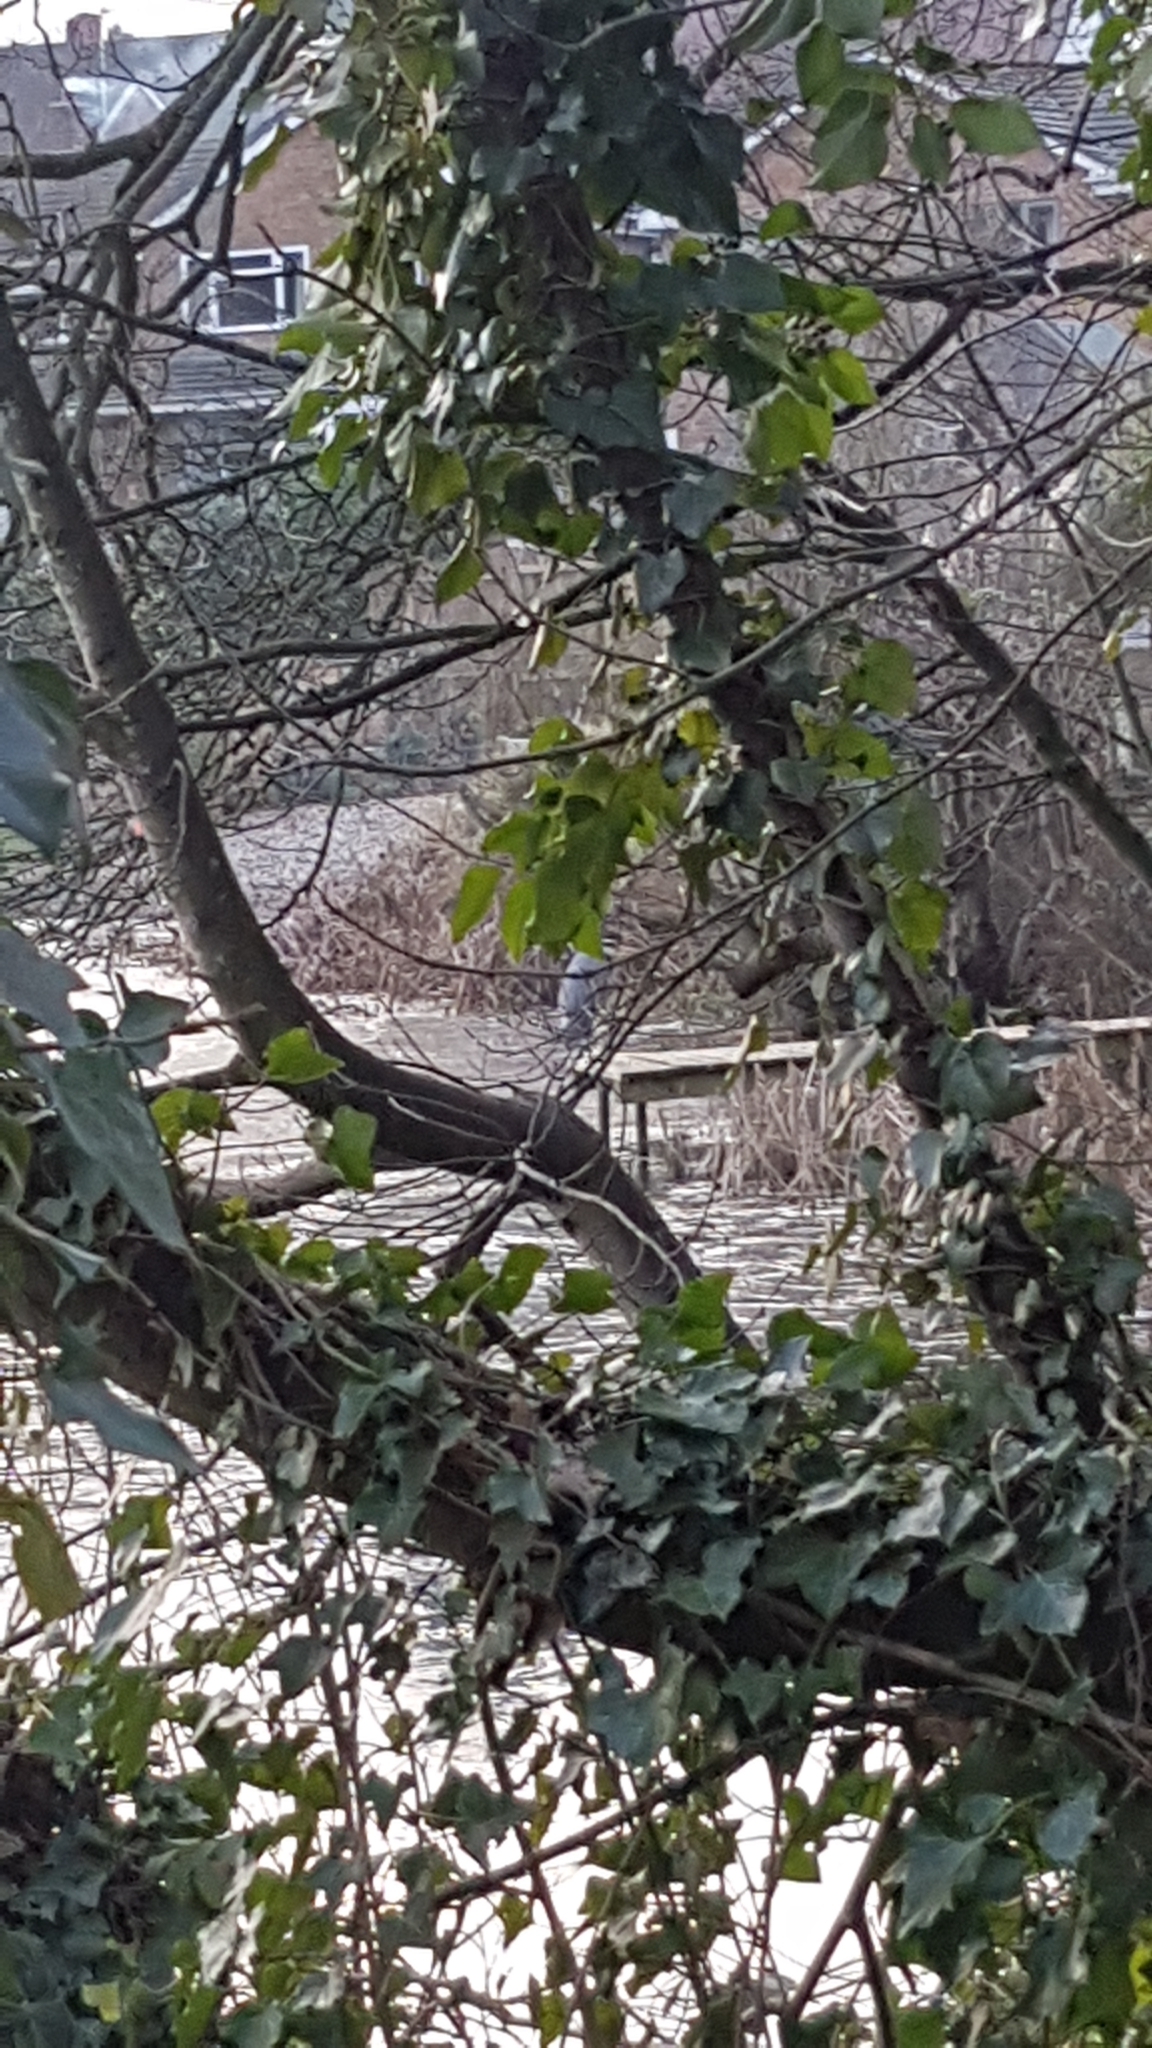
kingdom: Animalia
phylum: Chordata
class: Aves
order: Pelecaniformes
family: Ardeidae
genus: Ardea
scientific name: Ardea cinerea
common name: Grey heron
